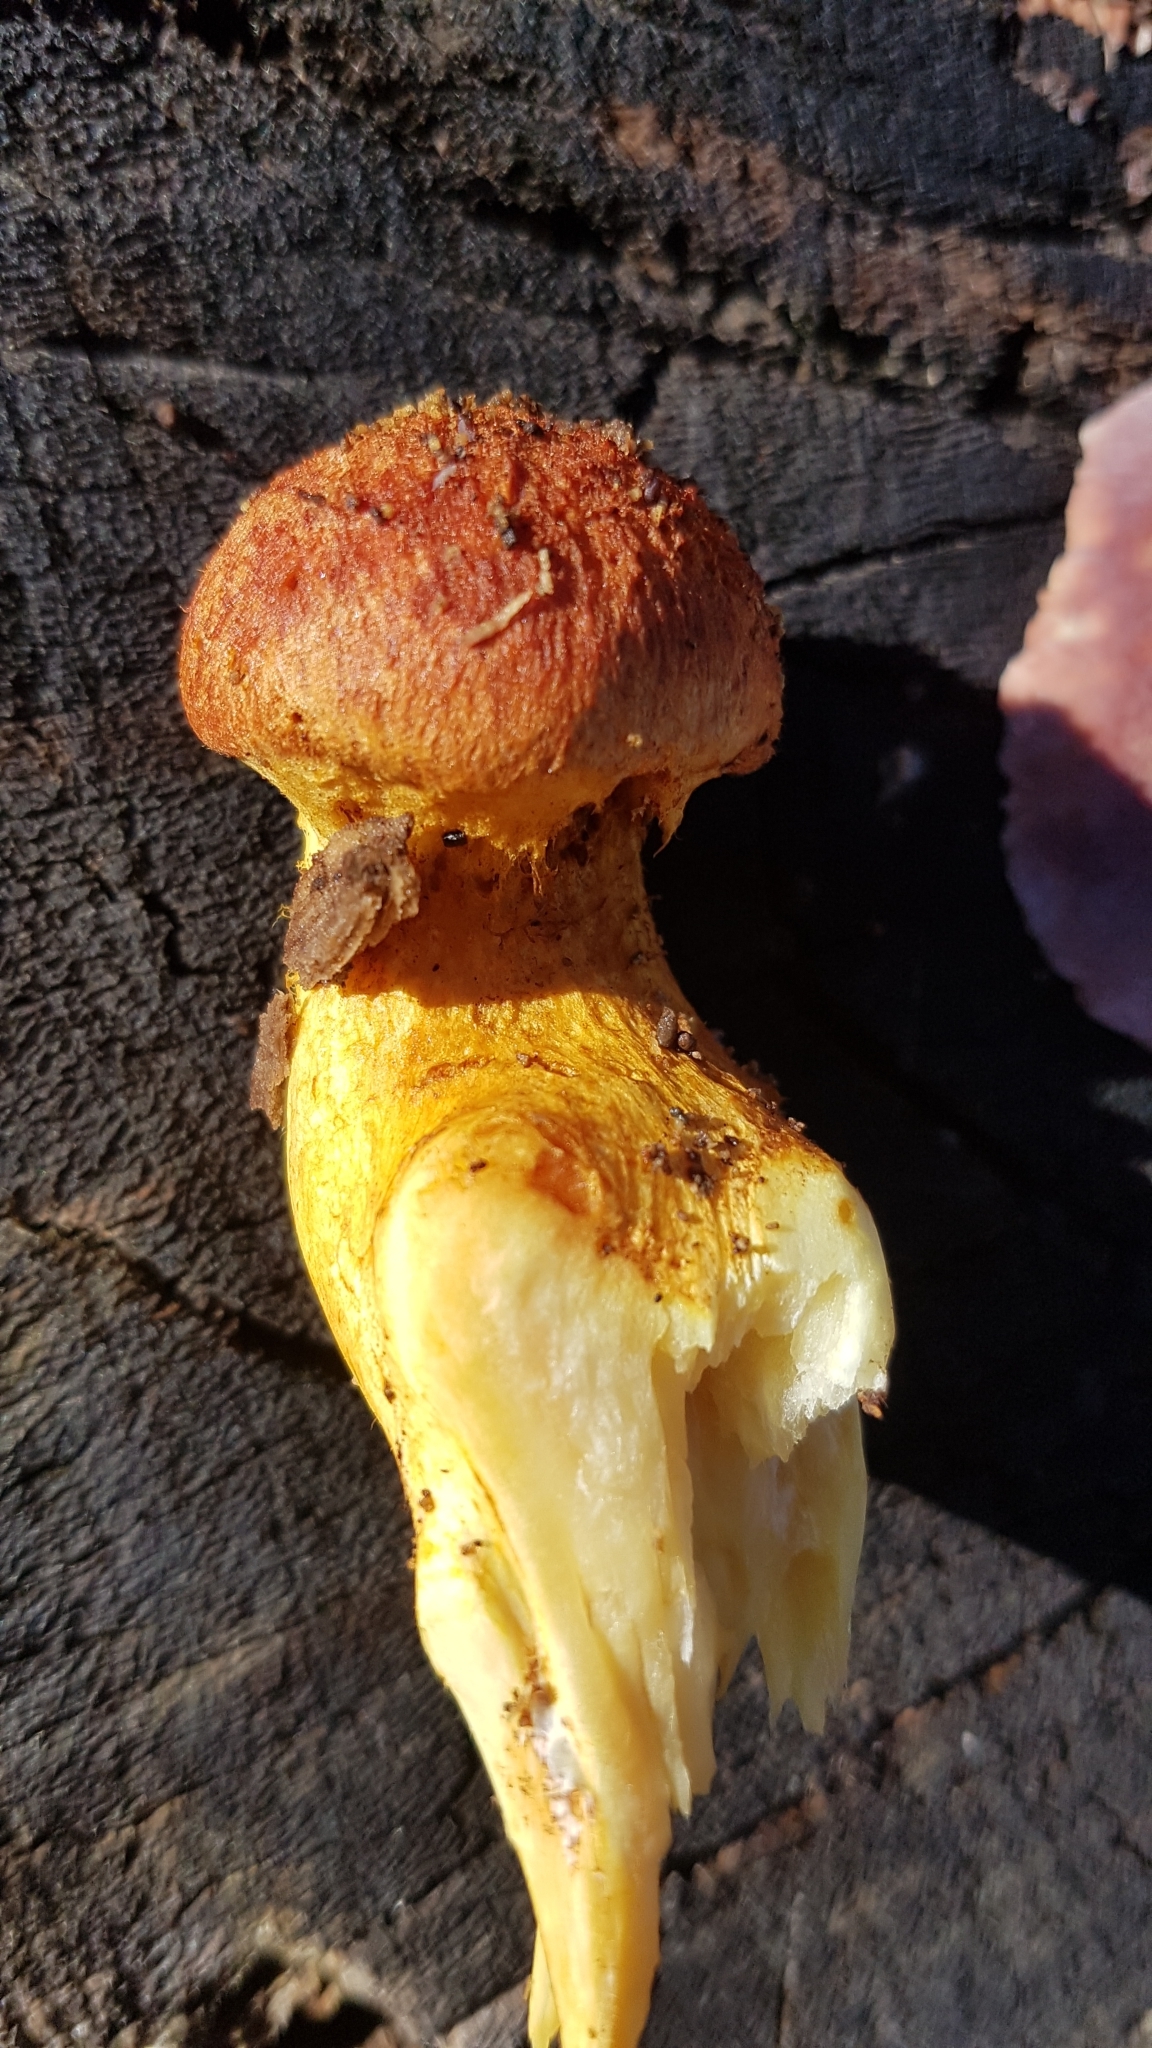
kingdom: Fungi
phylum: Basidiomycota
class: Agaricomycetes
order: Agaricales
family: Hymenogastraceae
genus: Gymnopilus
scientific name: Gymnopilus junonius
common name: Spectacular rustgill
